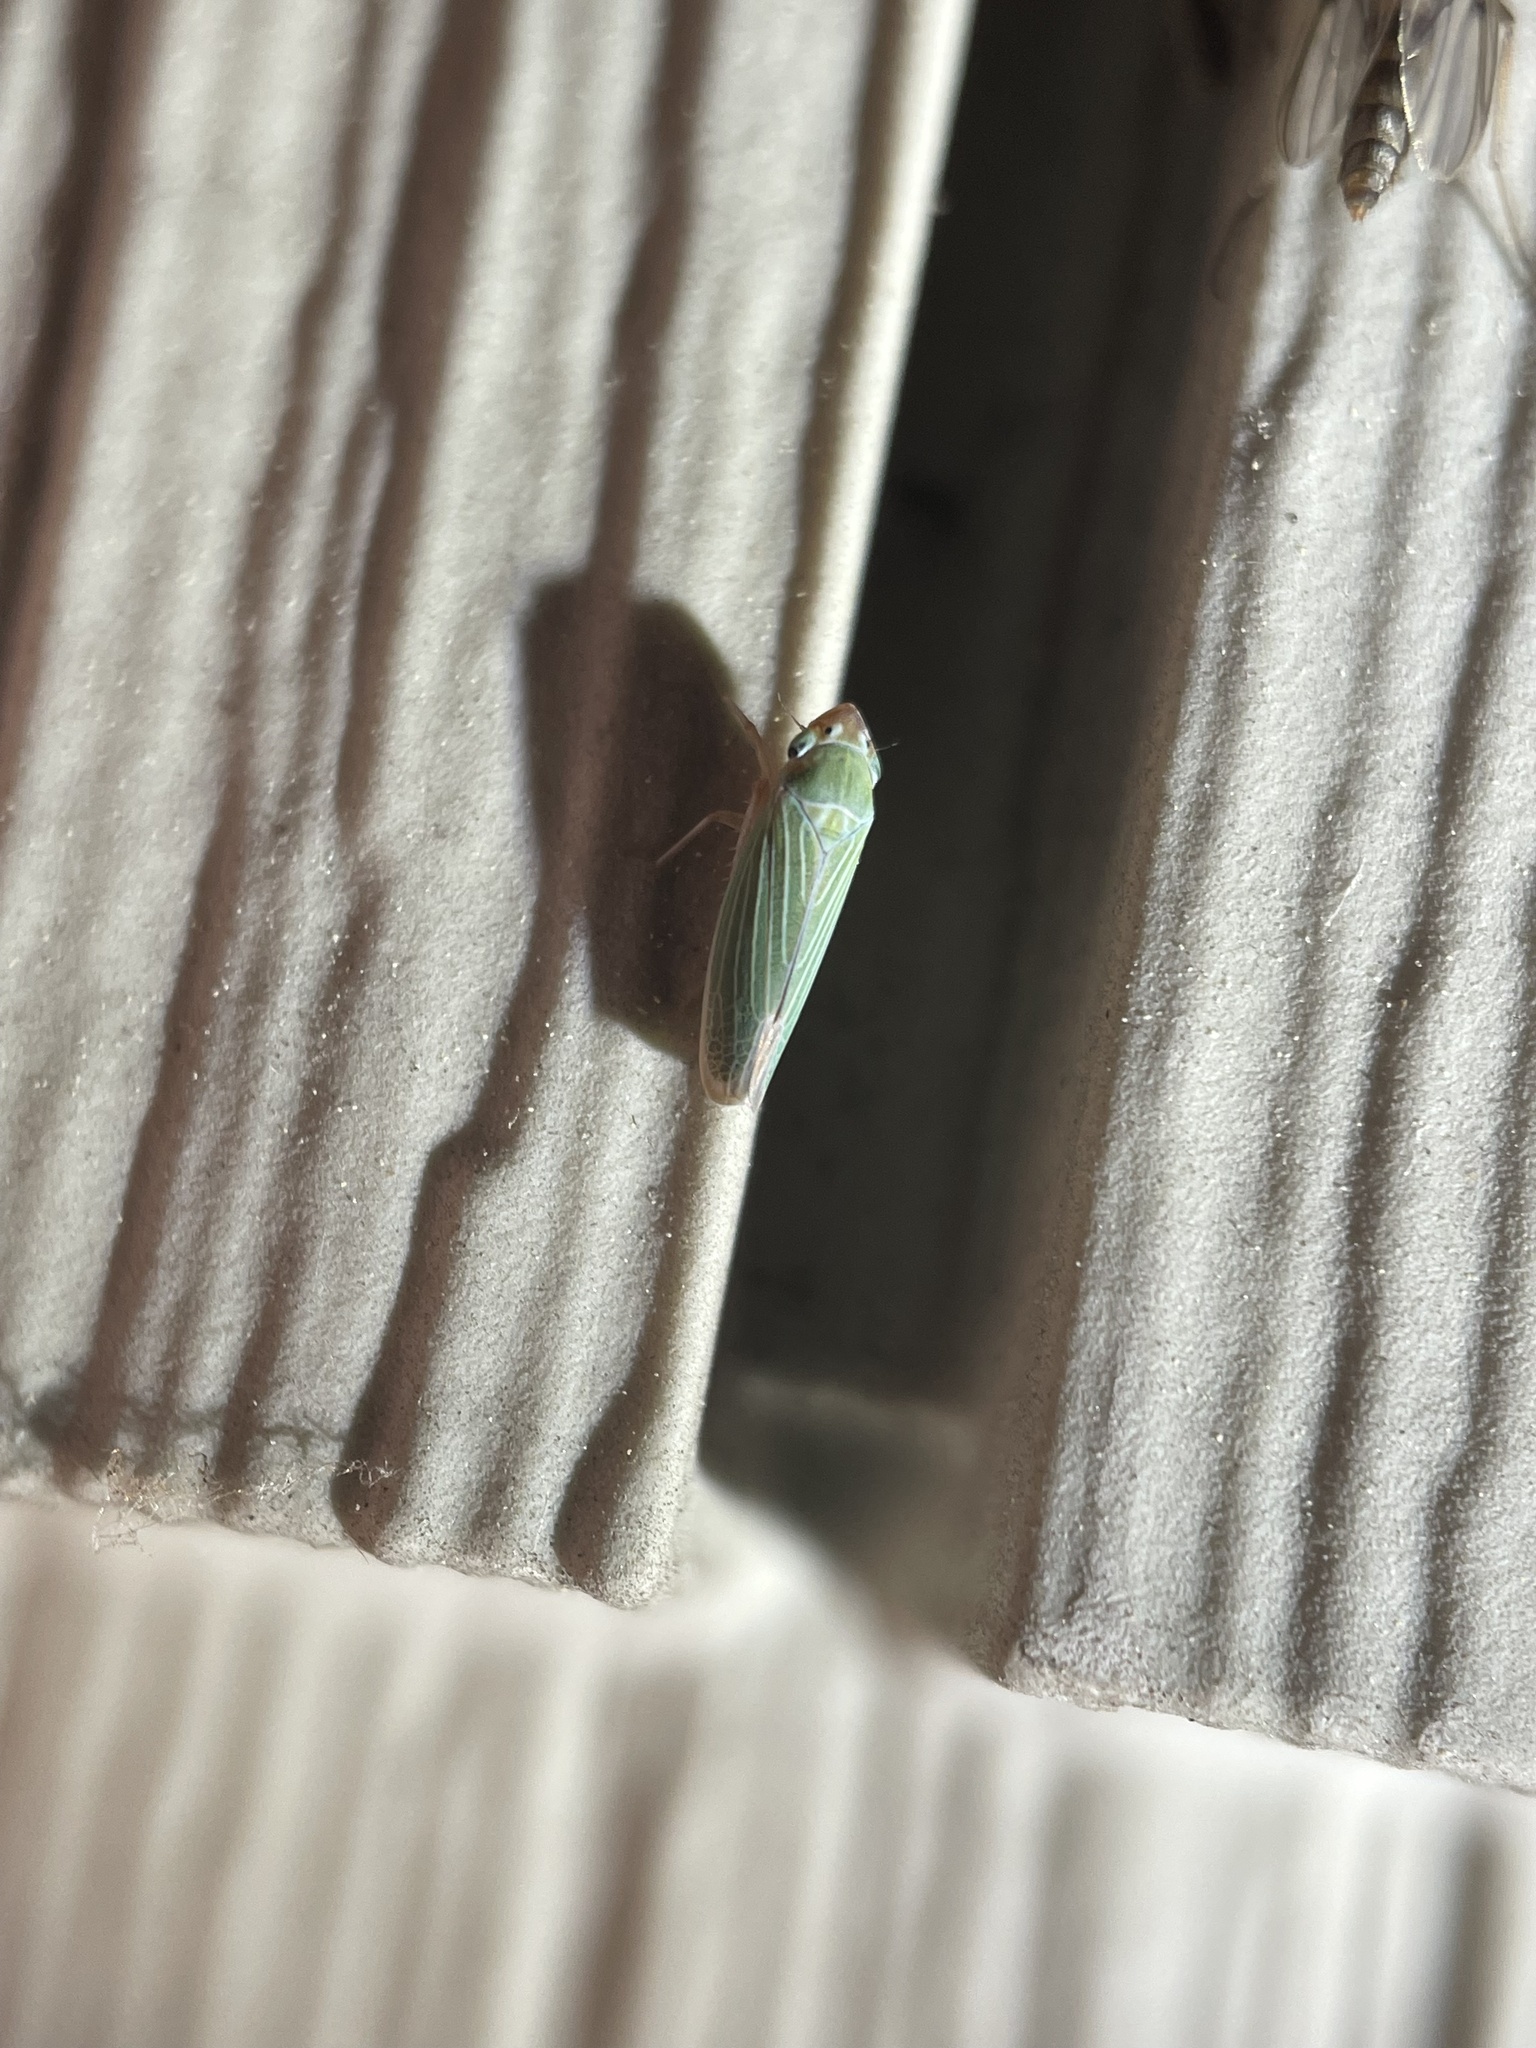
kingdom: Animalia
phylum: Arthropoda
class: Insecta
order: Hemiptera
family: Cicadellidae
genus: Xyphon
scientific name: Xyphon flaviceps
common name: Yellowheaded leafhopper
